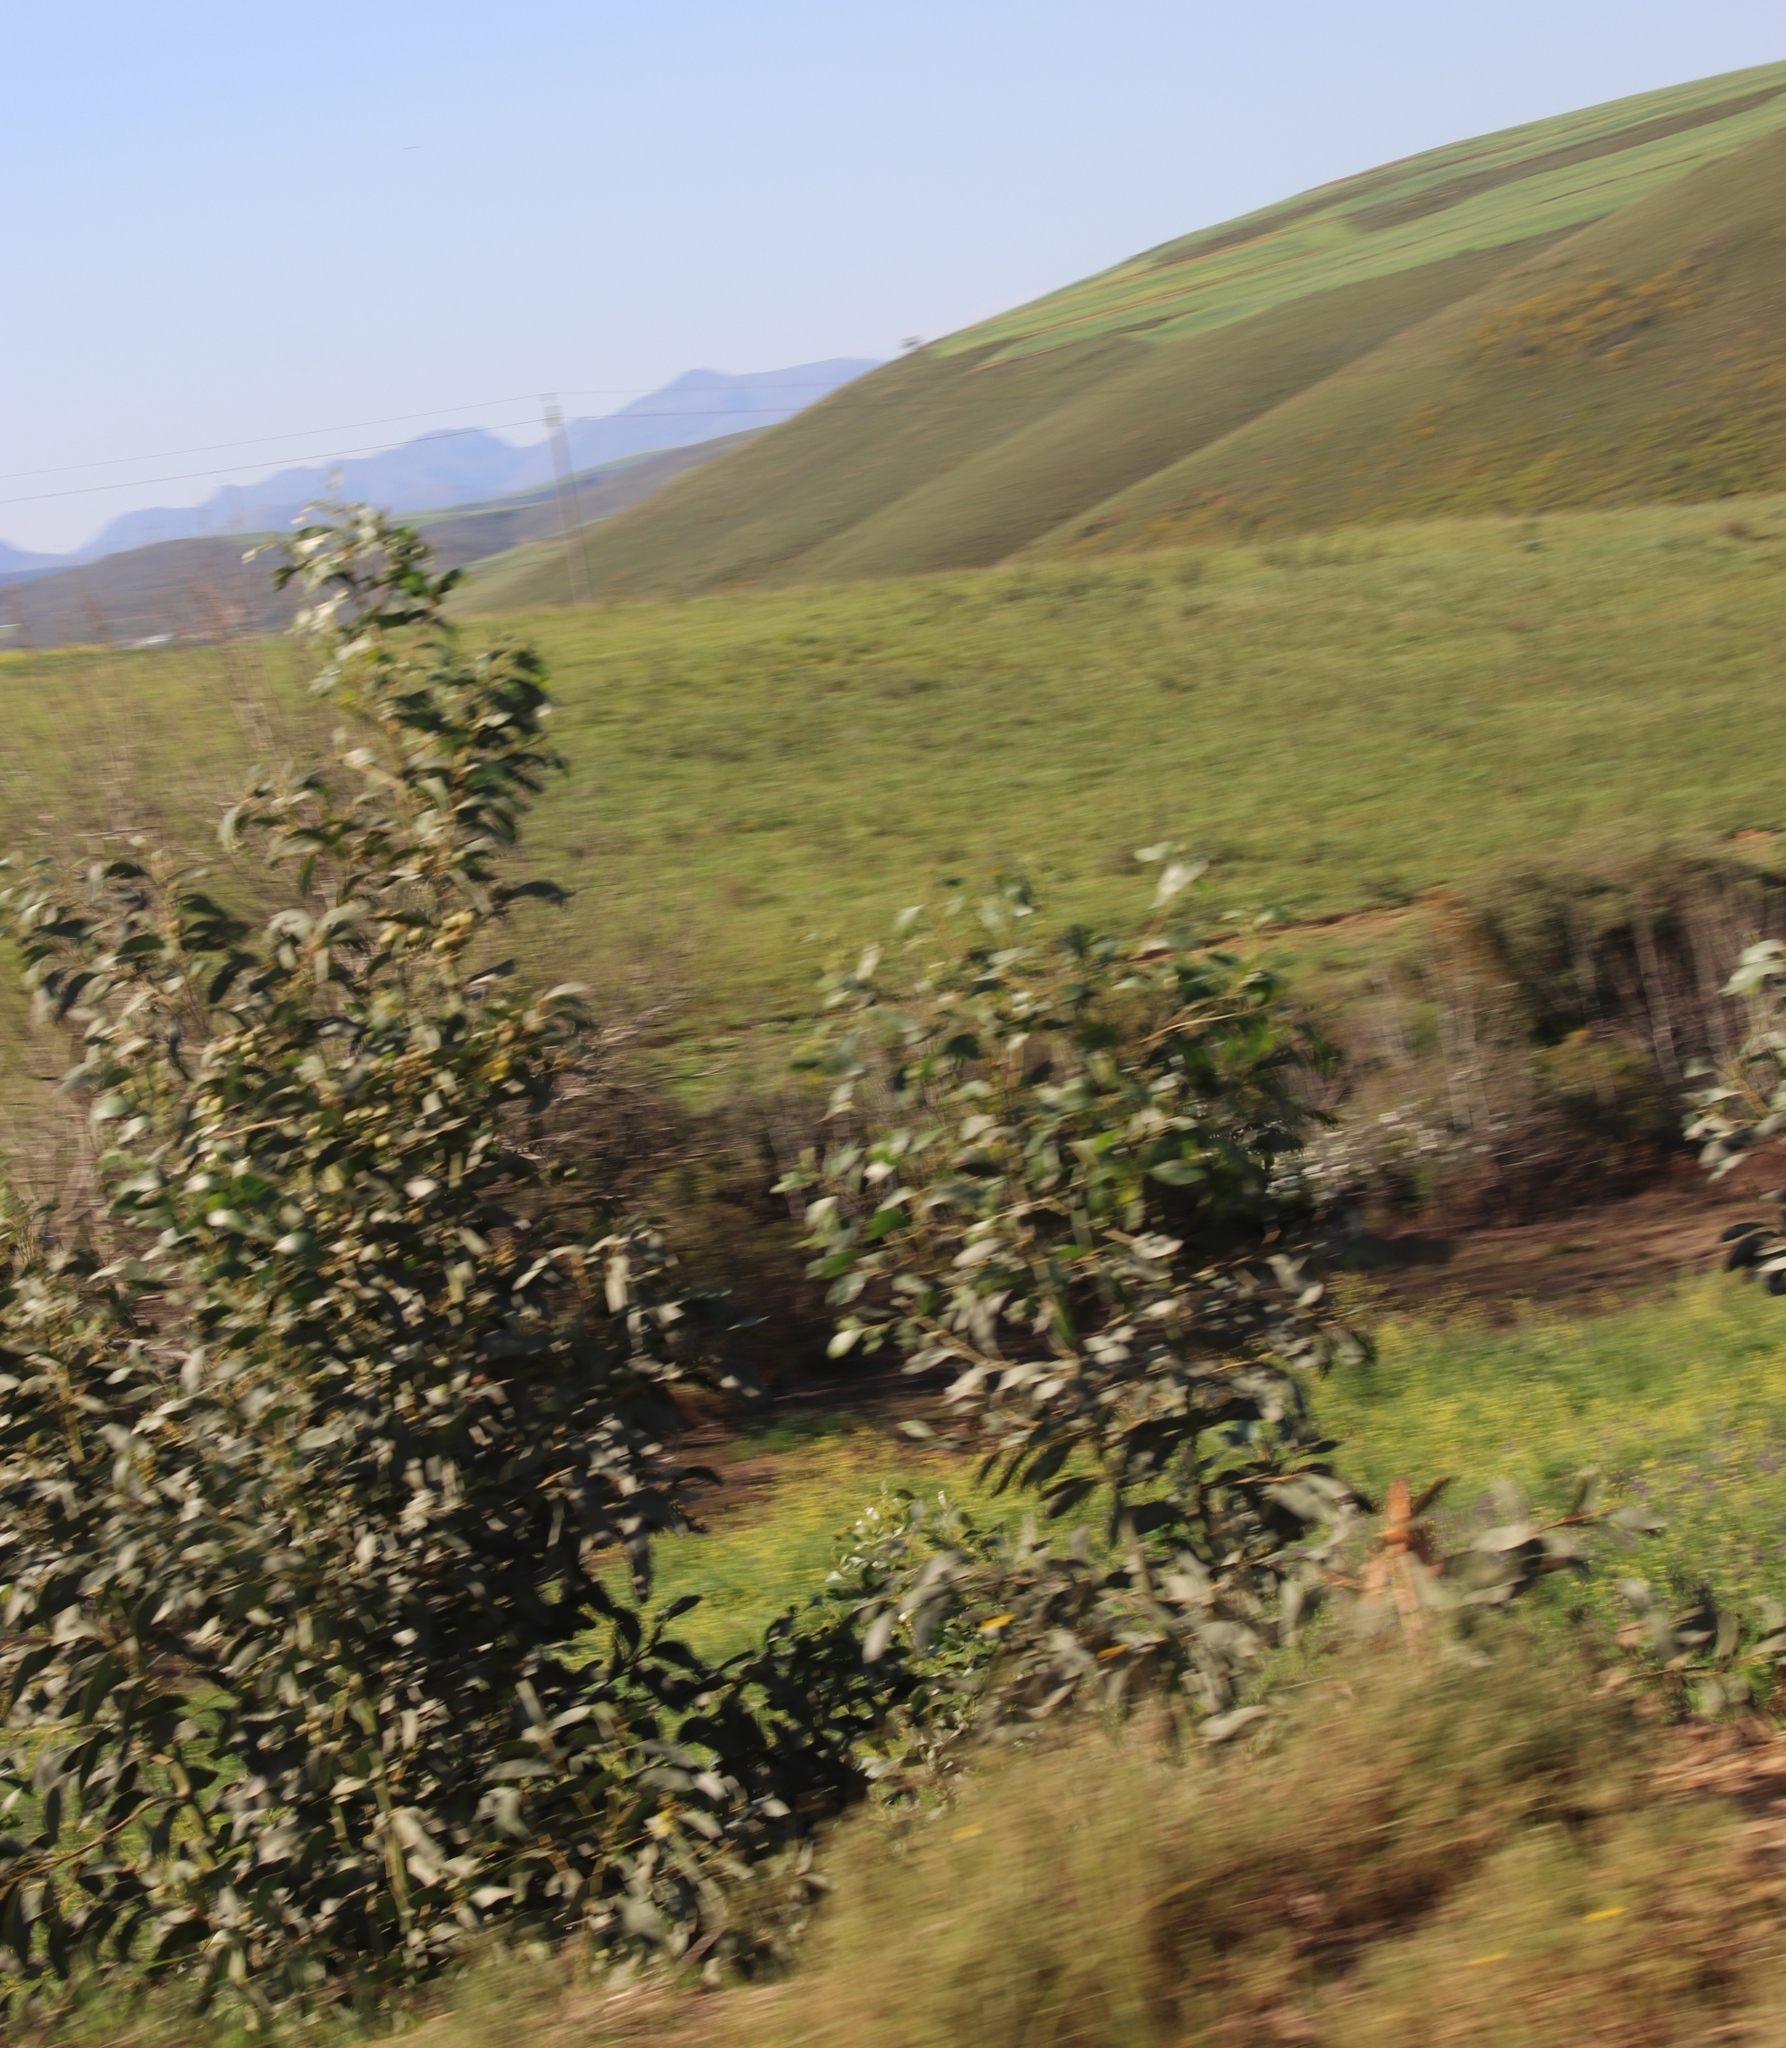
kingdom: Plantae
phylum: Tracheophyta
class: Magnoliopsida
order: Fabales
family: Fabaceae
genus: Acacia
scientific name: Acacia pycnantha
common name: Golden wattle
